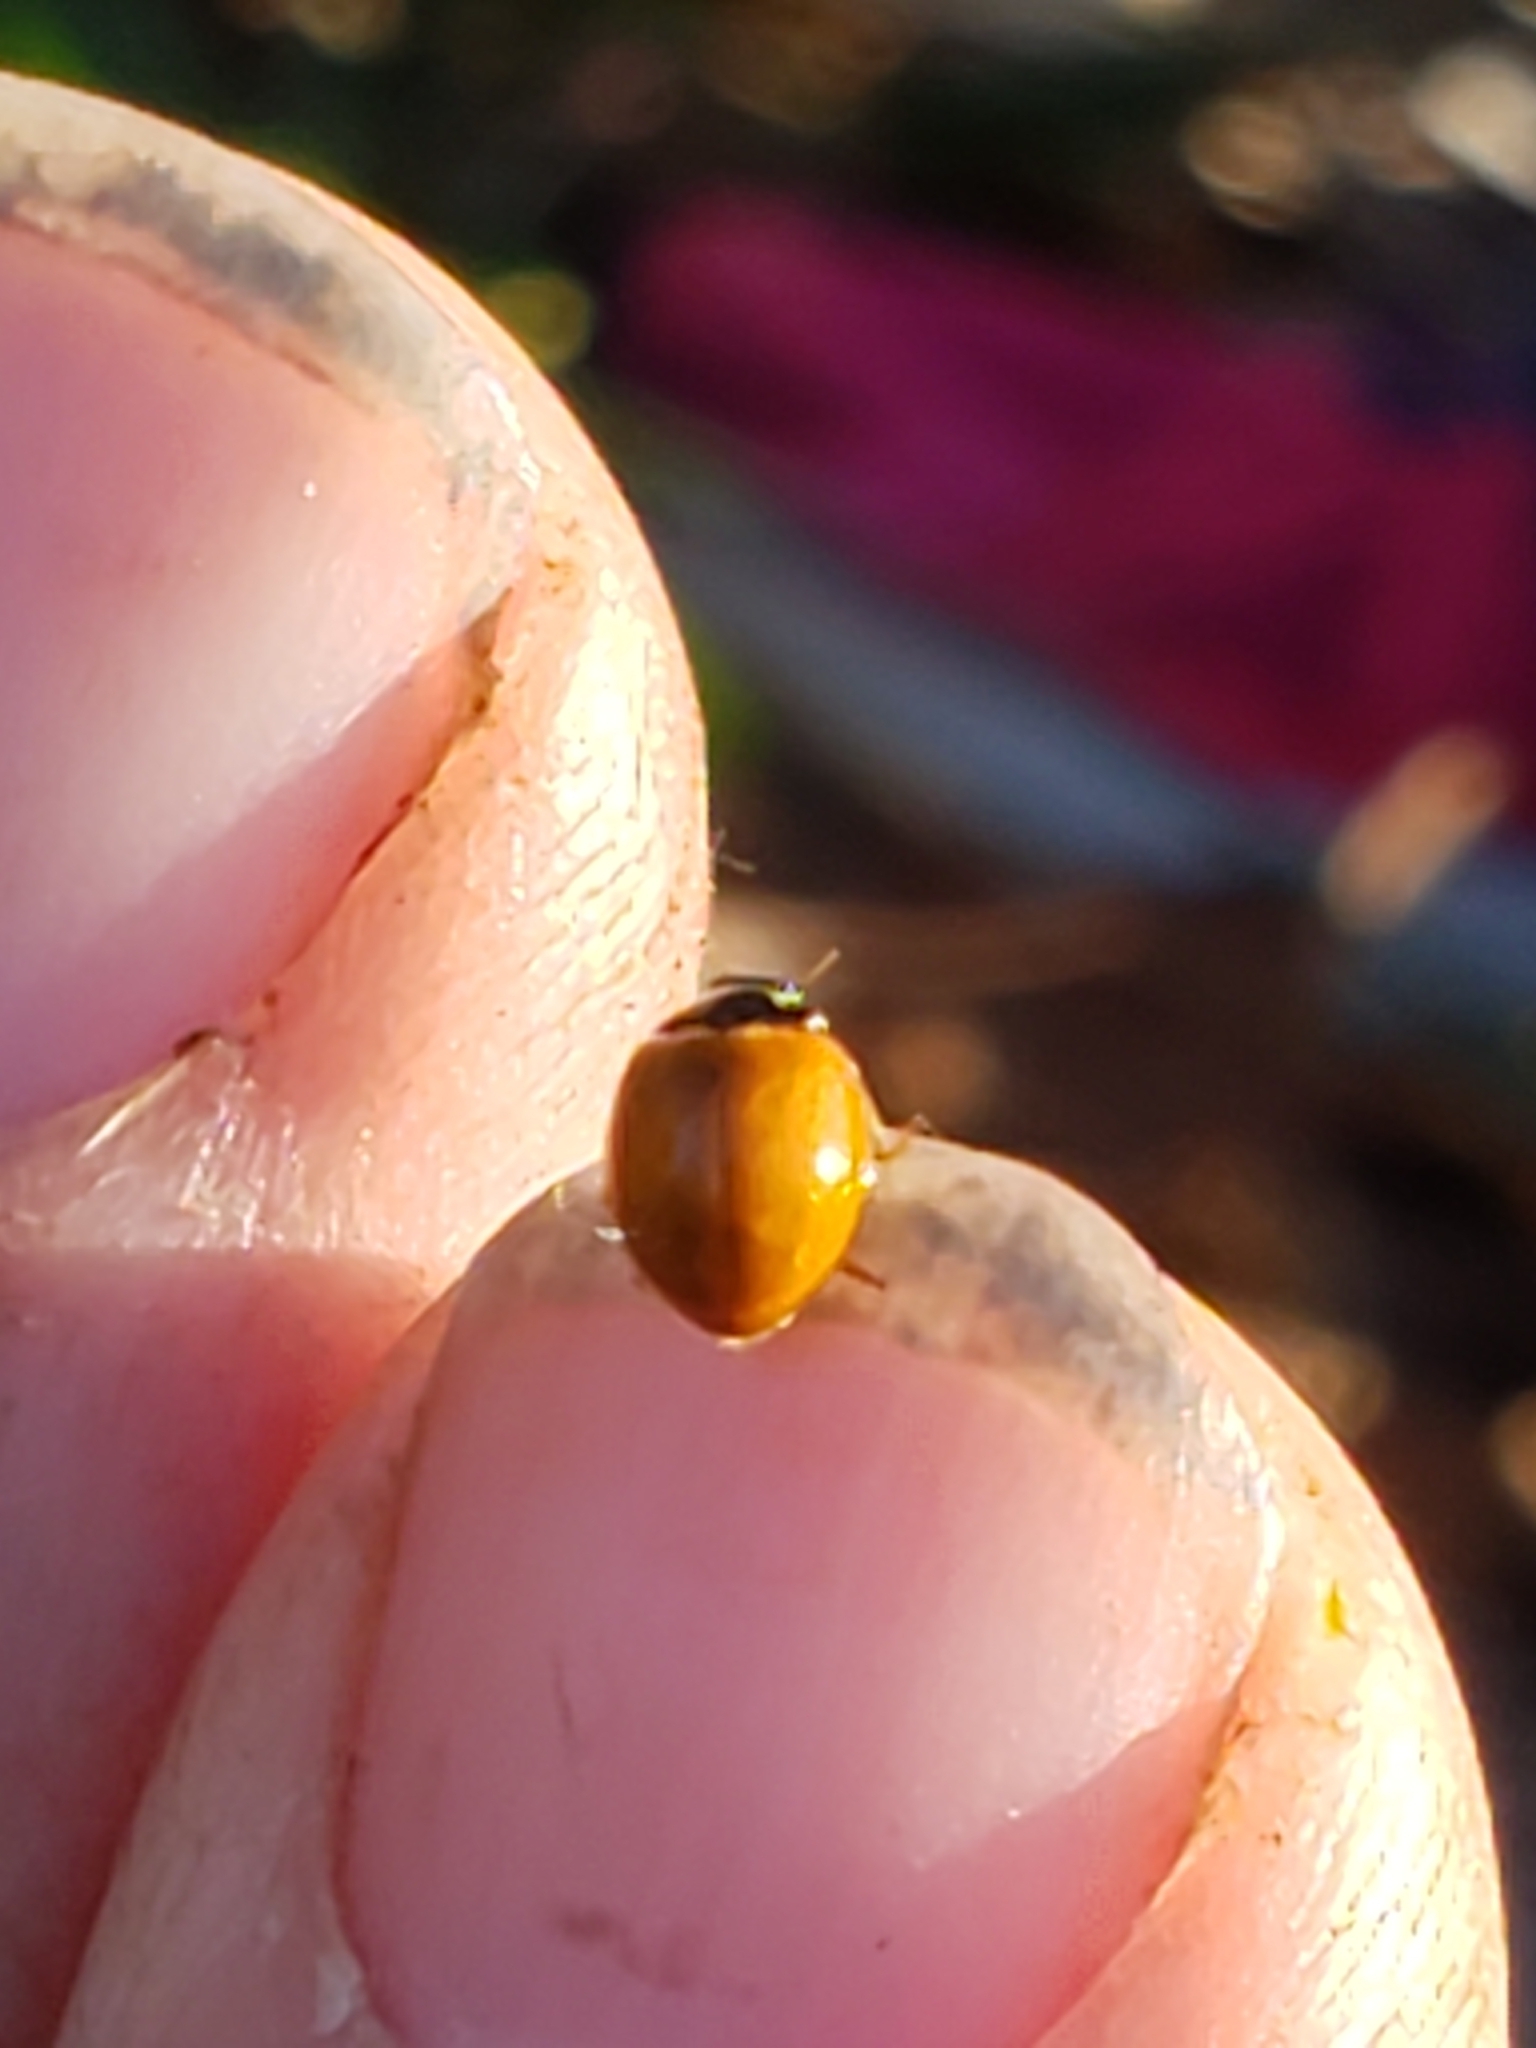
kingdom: Animalia
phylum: Arthropoda
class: Insecta
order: Coleoptera
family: Coccinellidae
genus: Cycloneda
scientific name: Cycloneda munda
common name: Polished lady beetle
